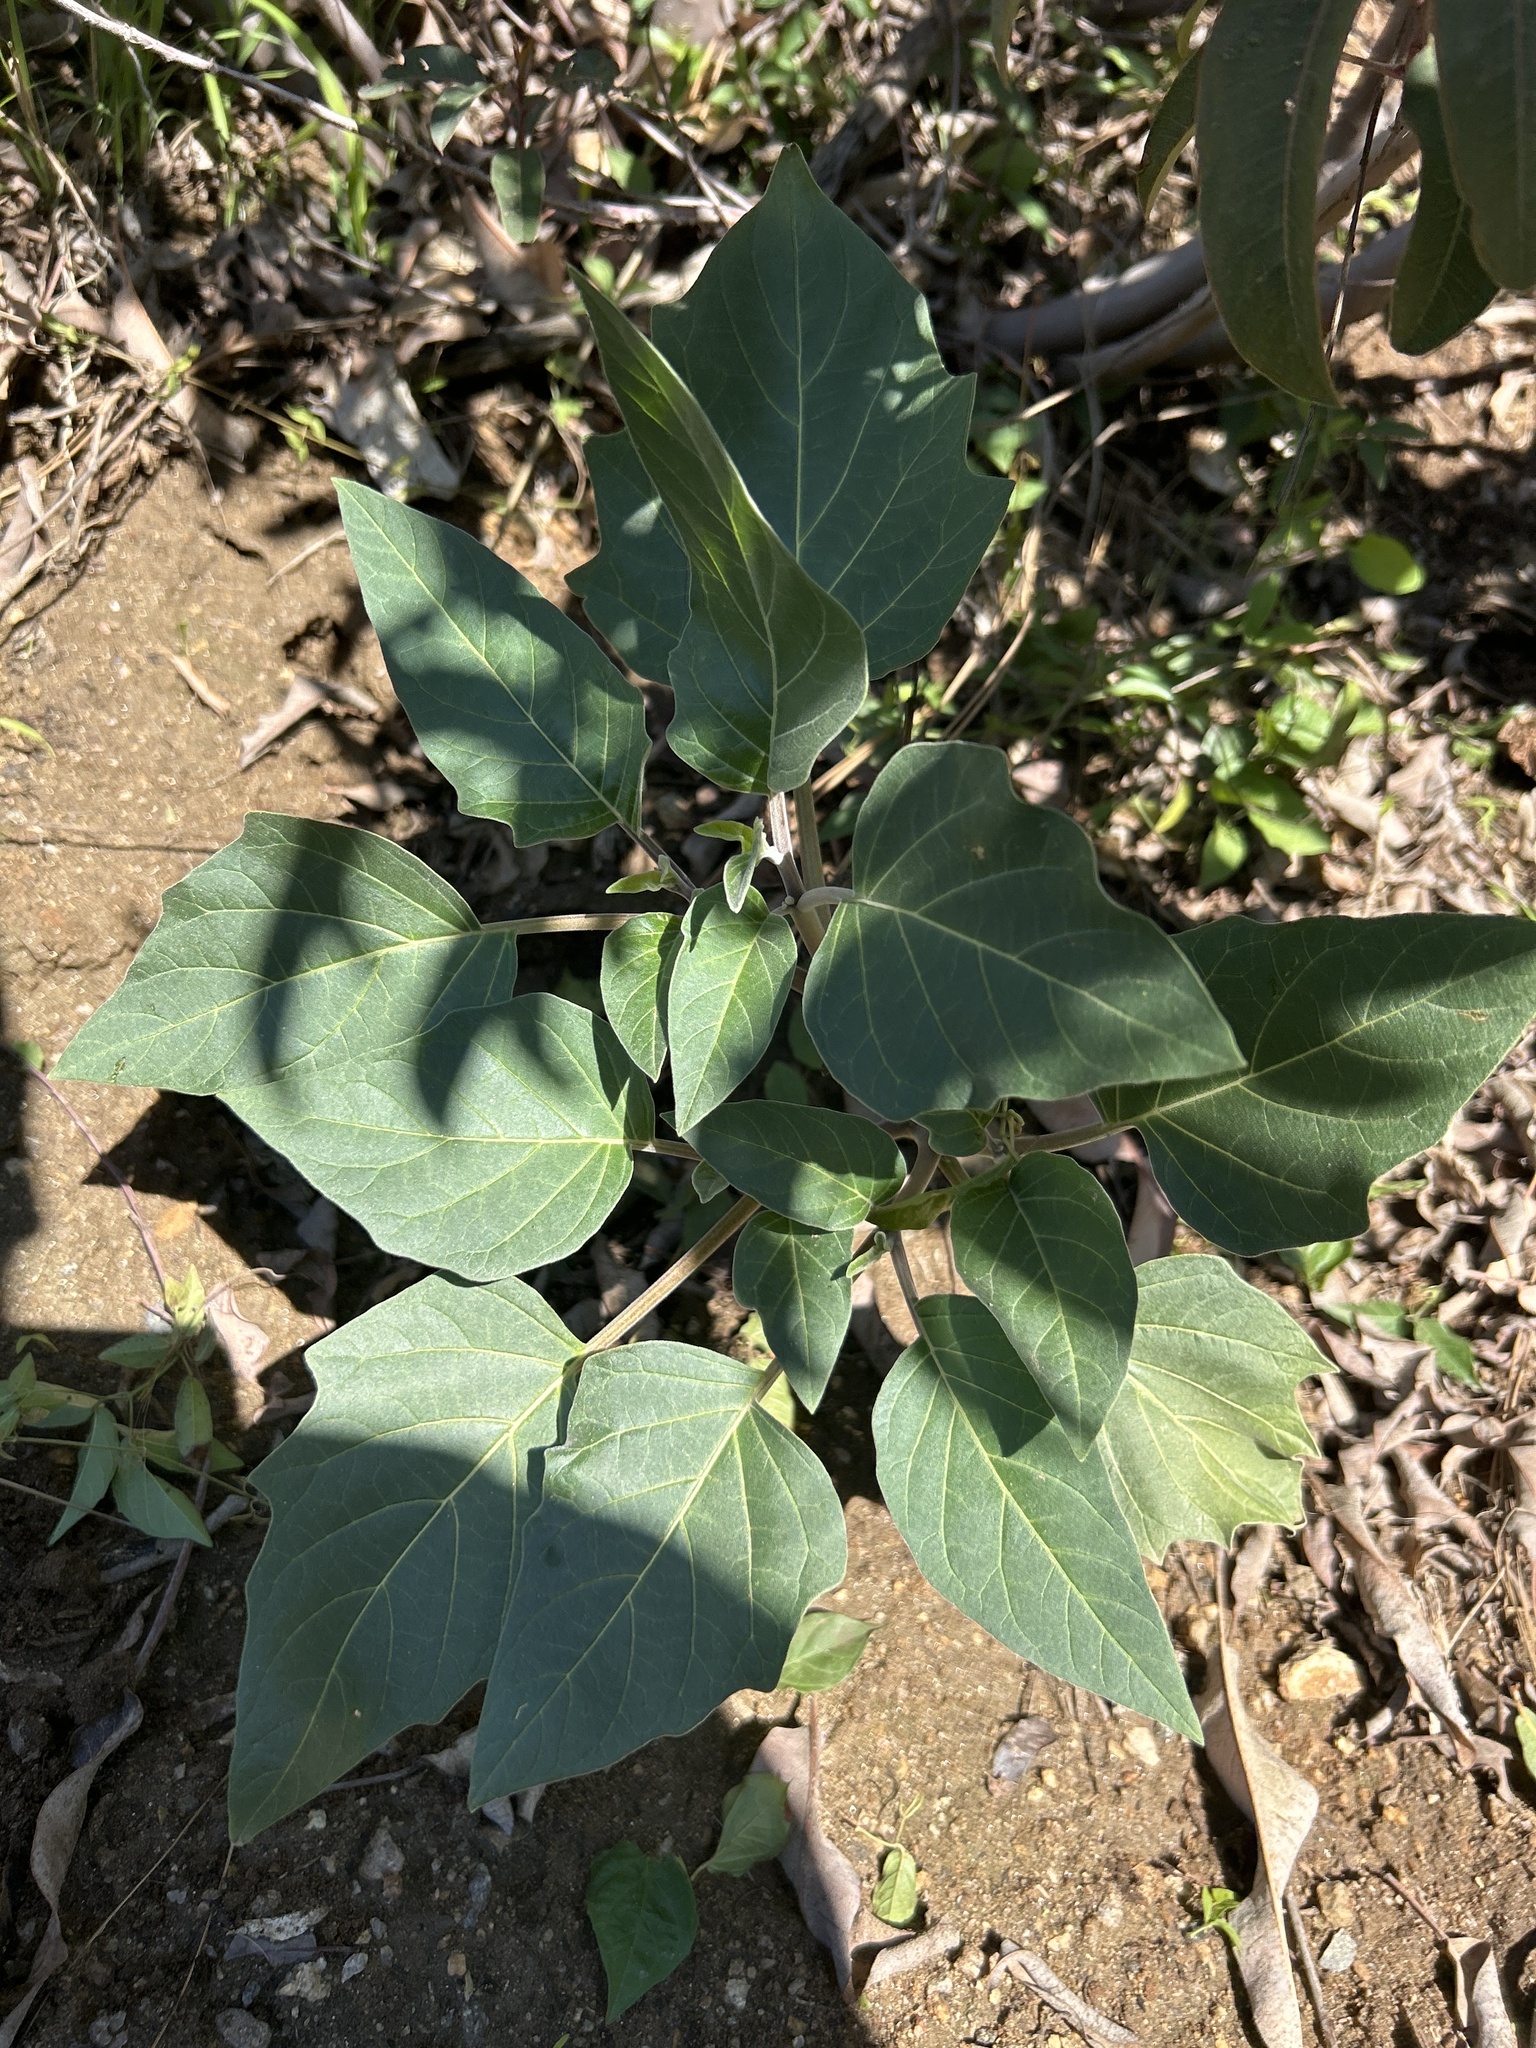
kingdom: Plantae
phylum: Tracheophyta
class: Magnoliopsida
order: Solanales
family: Solanaceae
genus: Datura
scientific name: Datura wrightii
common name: Sacred thorn-apple
